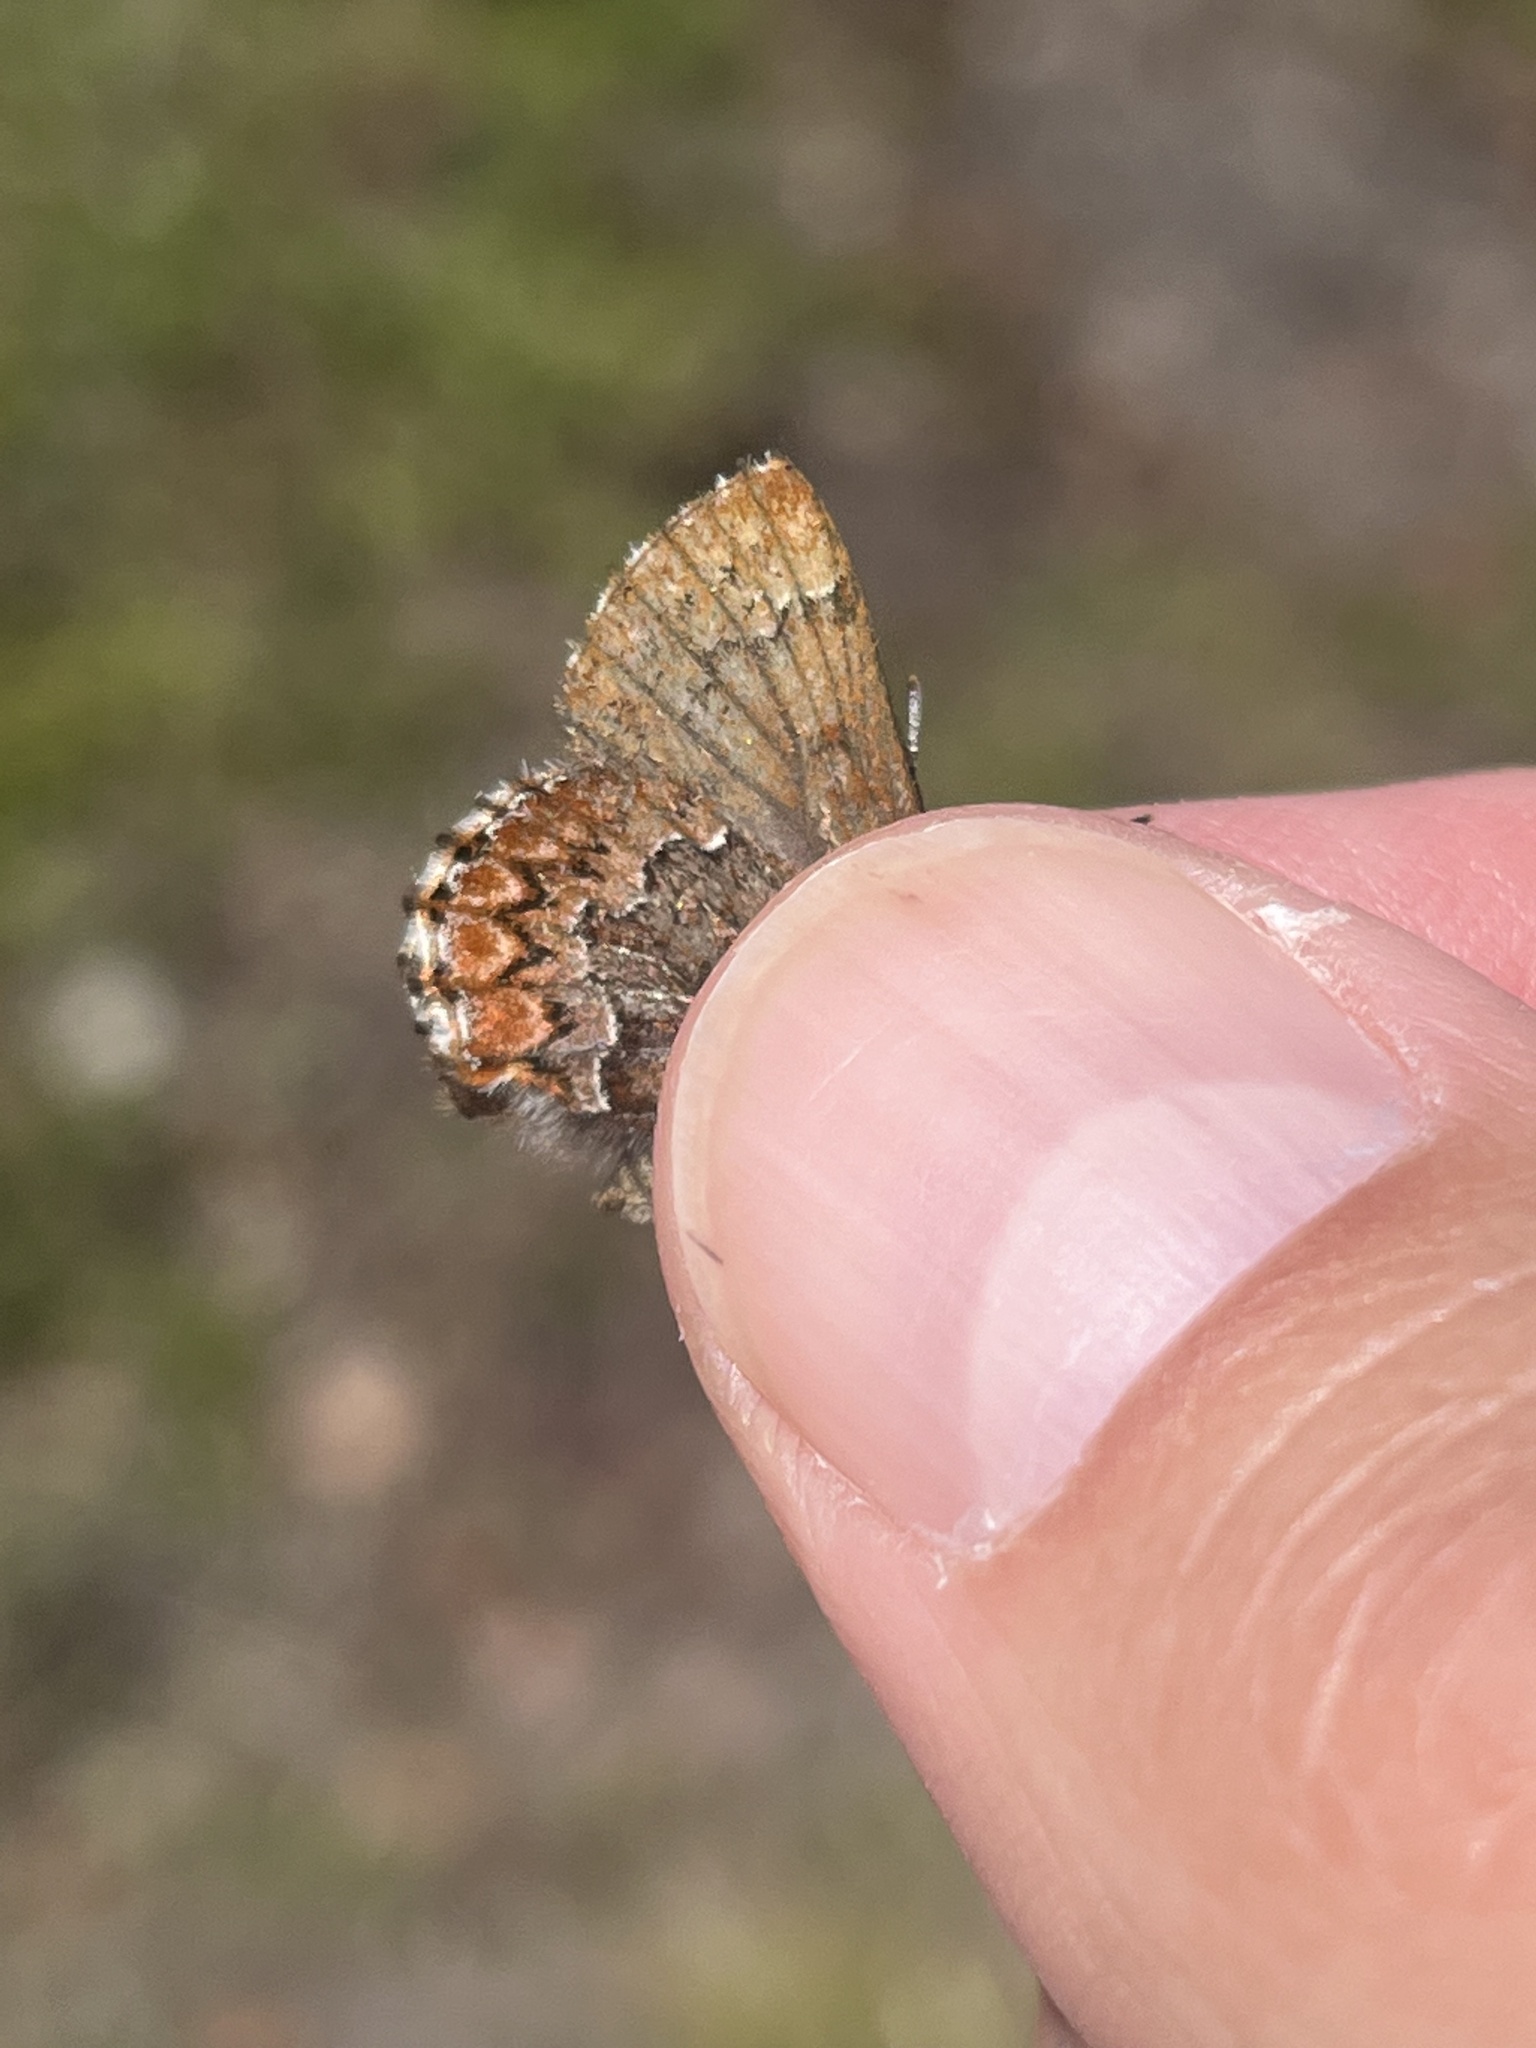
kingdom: Animalia
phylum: Arthropoda
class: Insecta
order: Lepidoptera
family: Lycaenidae
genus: Incisalia
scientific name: Incisalia eryphon
